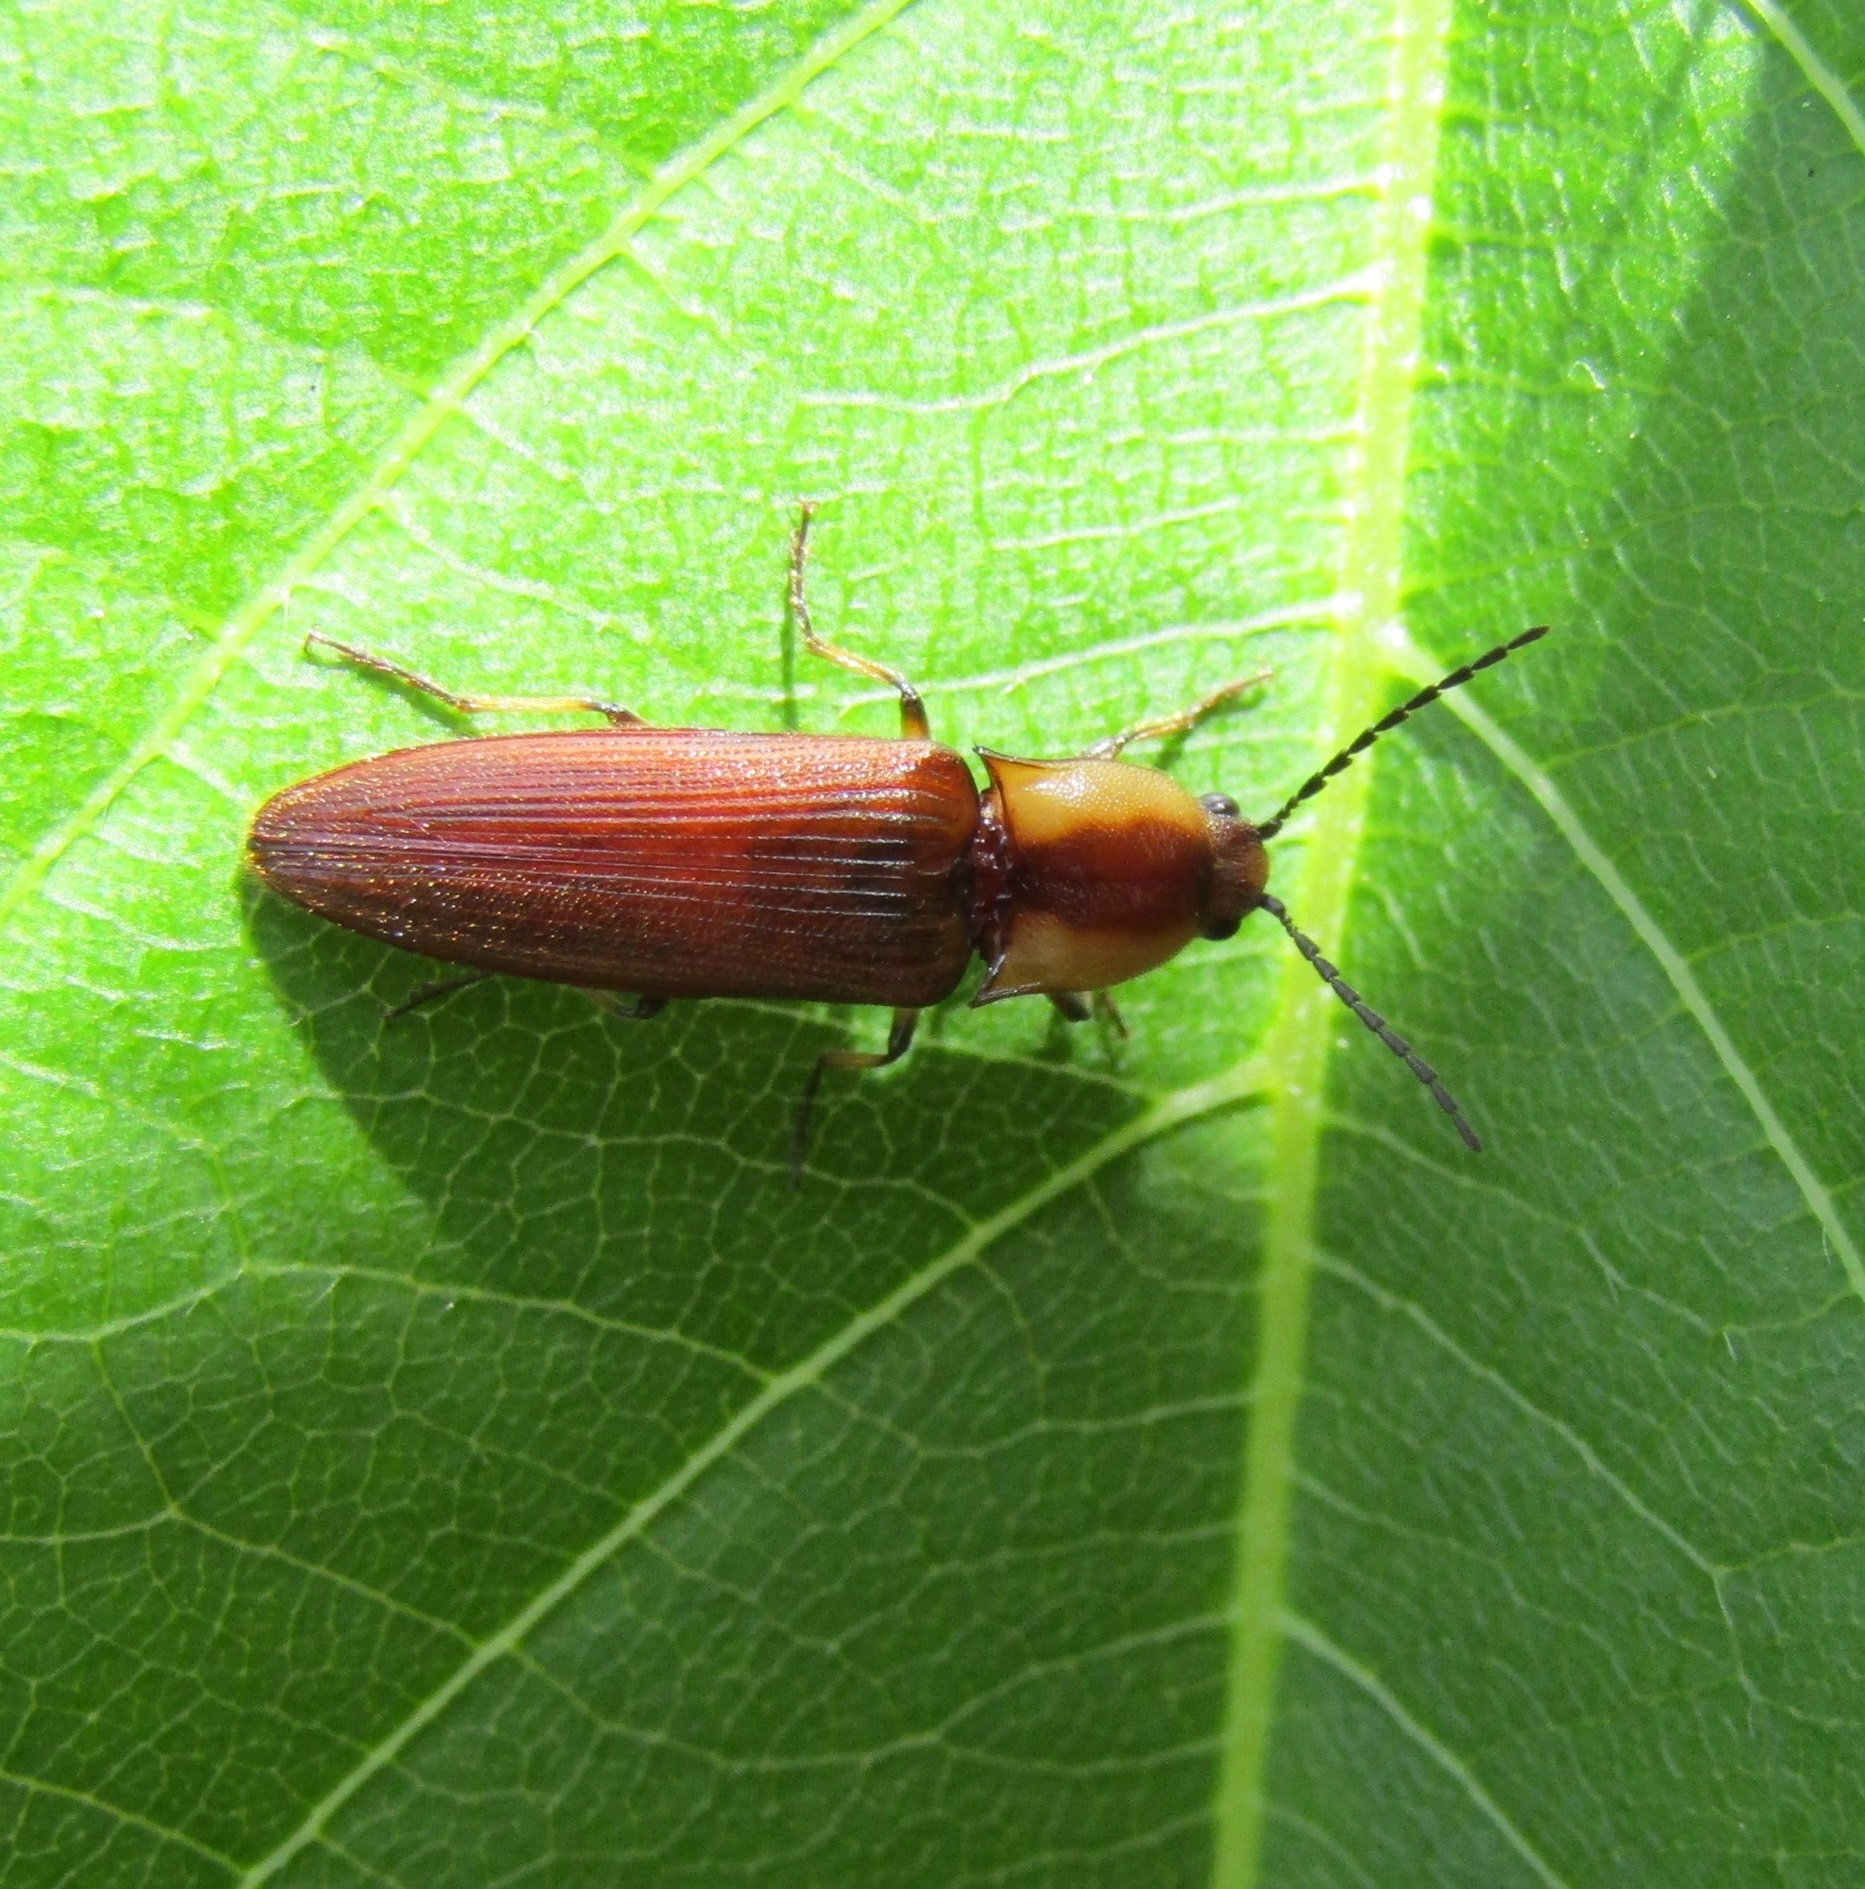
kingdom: Animalia
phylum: Arthropoda
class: Insecta
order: Coleoptera
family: Elateridae
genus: Sphaenelater
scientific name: Sphaenelater
